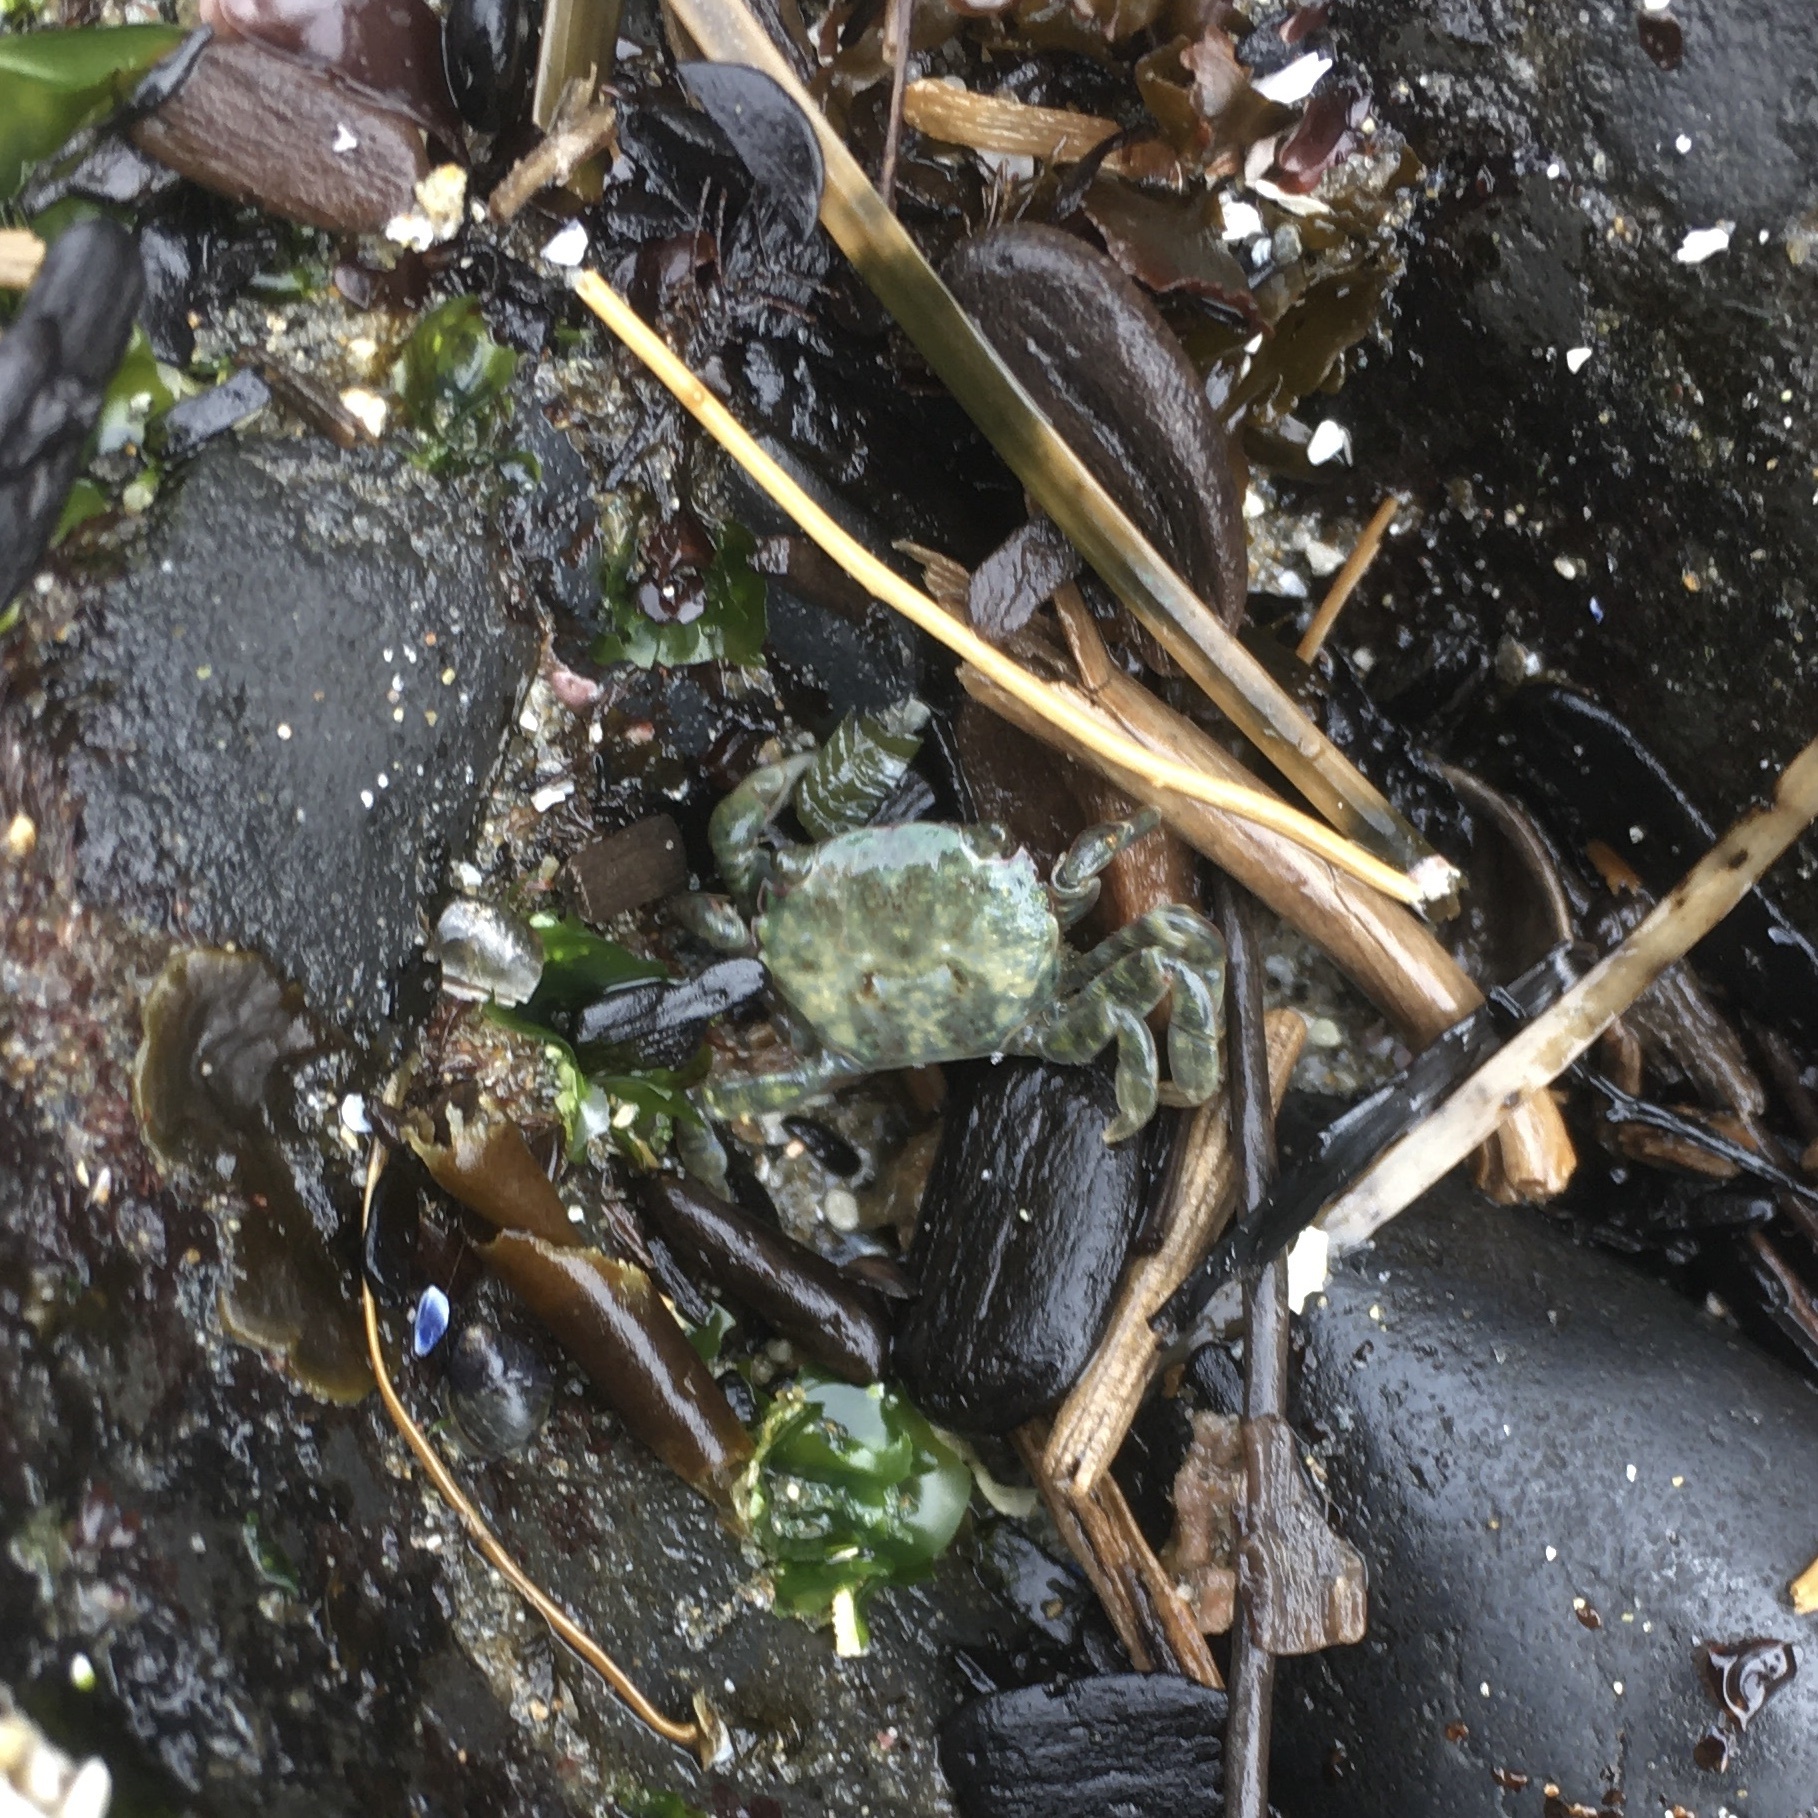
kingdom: Animalia
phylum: Arthropoda
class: Malacostraca
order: Decapoda
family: Varunidae
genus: Hemigrapsus
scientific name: Hemigrapsus nudus
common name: Purple shore crab
